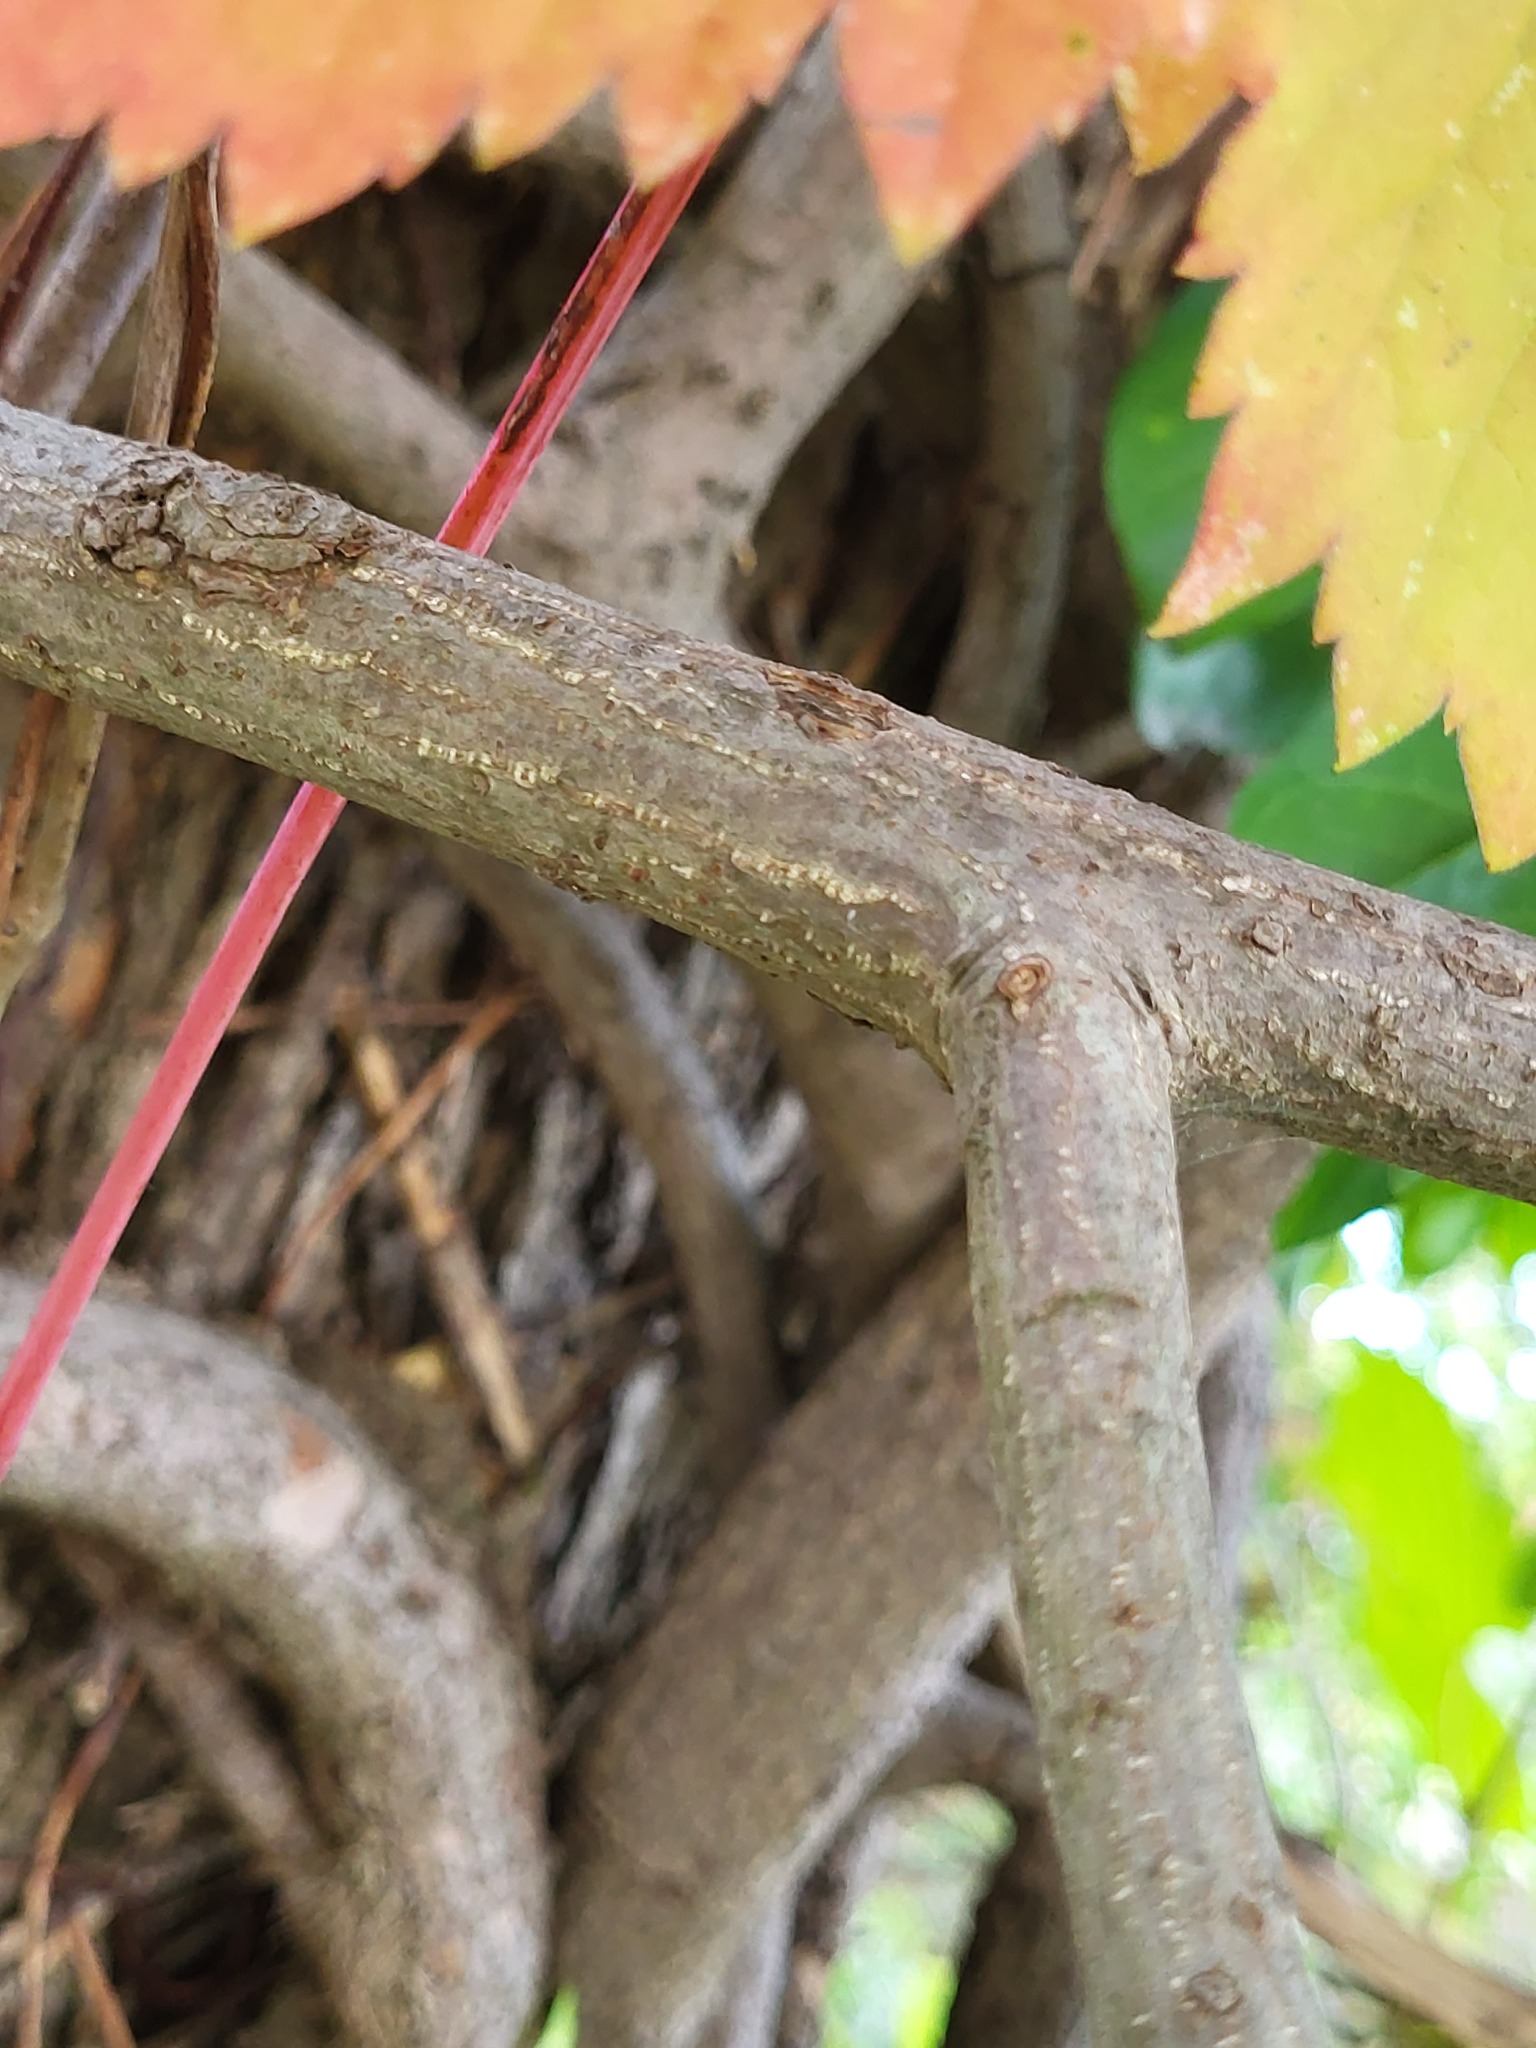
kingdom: Plantae
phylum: Tracheophyta
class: Magnoliopsida
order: Celastrales
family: Celastraceae
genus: Euonymus
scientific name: Euonymus fortunei
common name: Climbing euonymus
